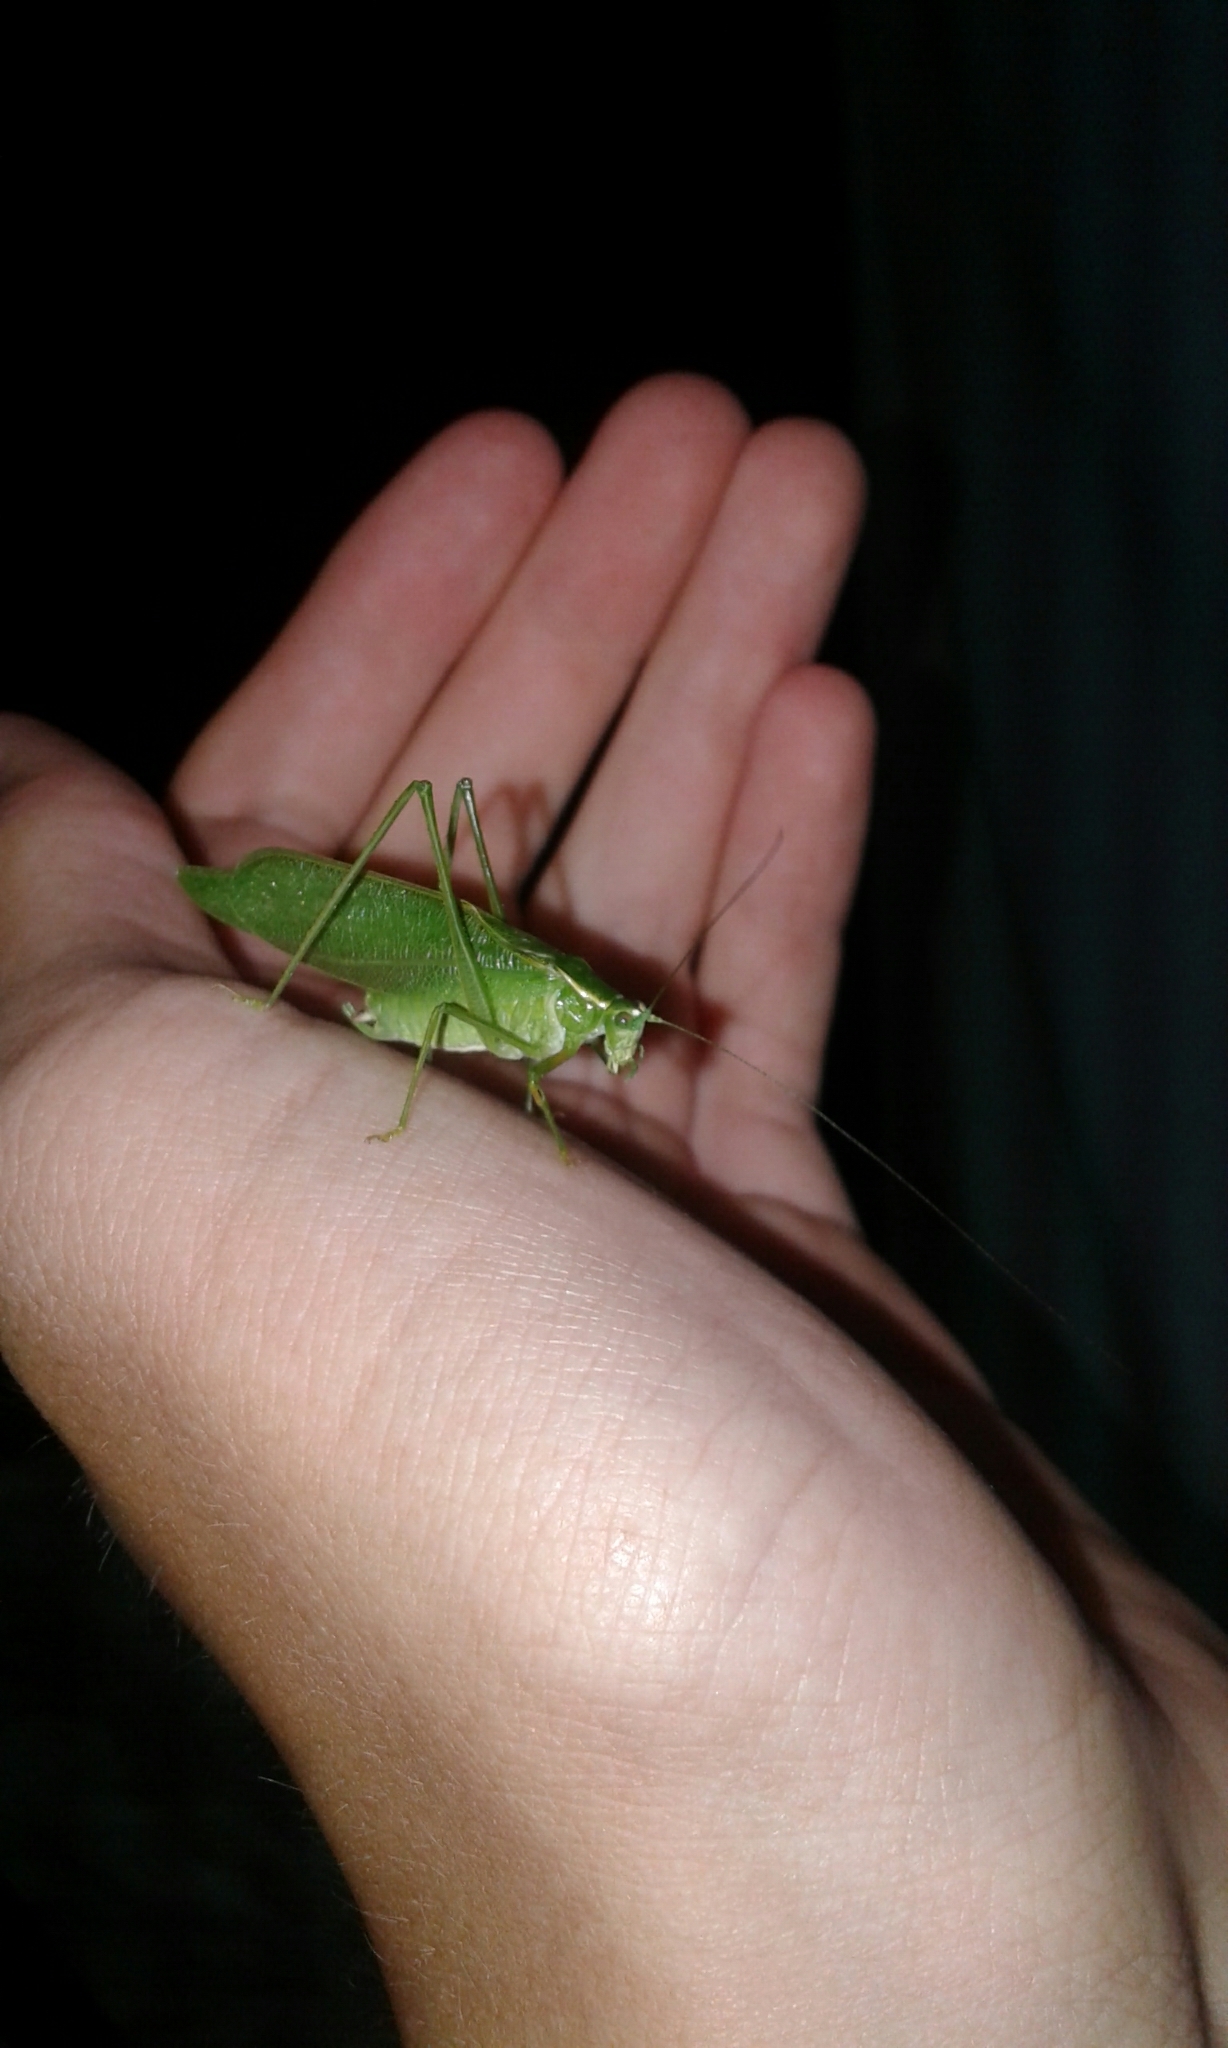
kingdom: Animalia
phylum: Arthropoda
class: Insecta
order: Orthoptera
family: Tettigoniidae
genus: Scudderia
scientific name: Scudderia septentrionalis
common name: Northern bush-katydid
